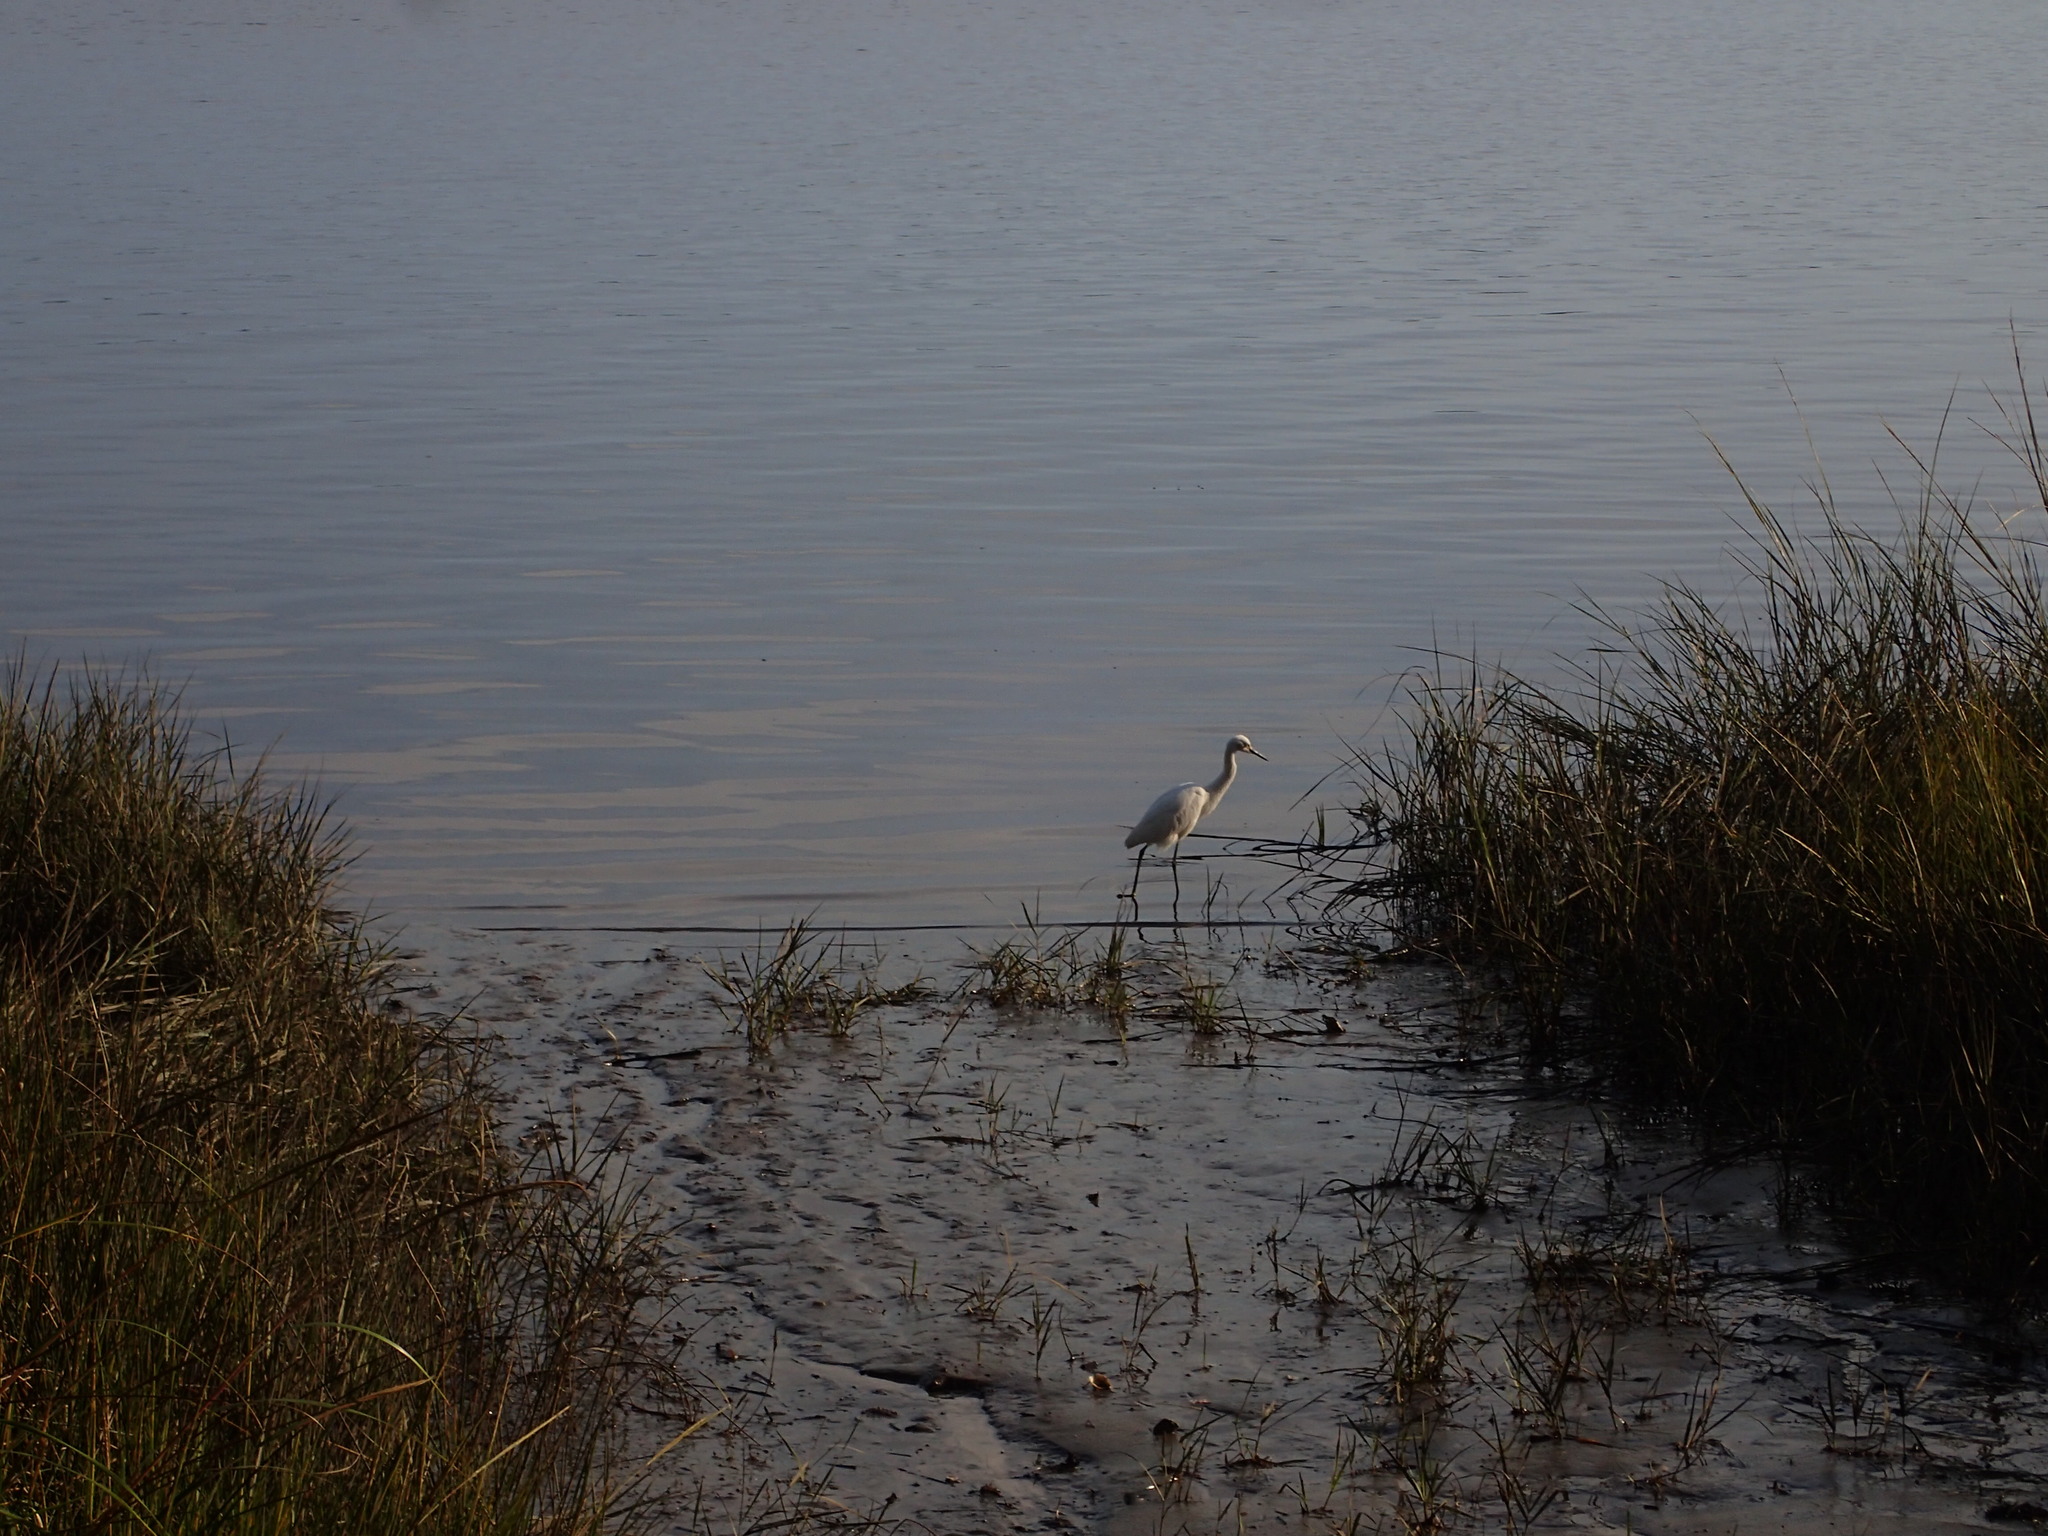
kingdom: Animalia
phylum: Chordata
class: Aves
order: Pelecaniformes
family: Ardeidae
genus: Egretta
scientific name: Egretta caerulea
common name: Little blue heron
